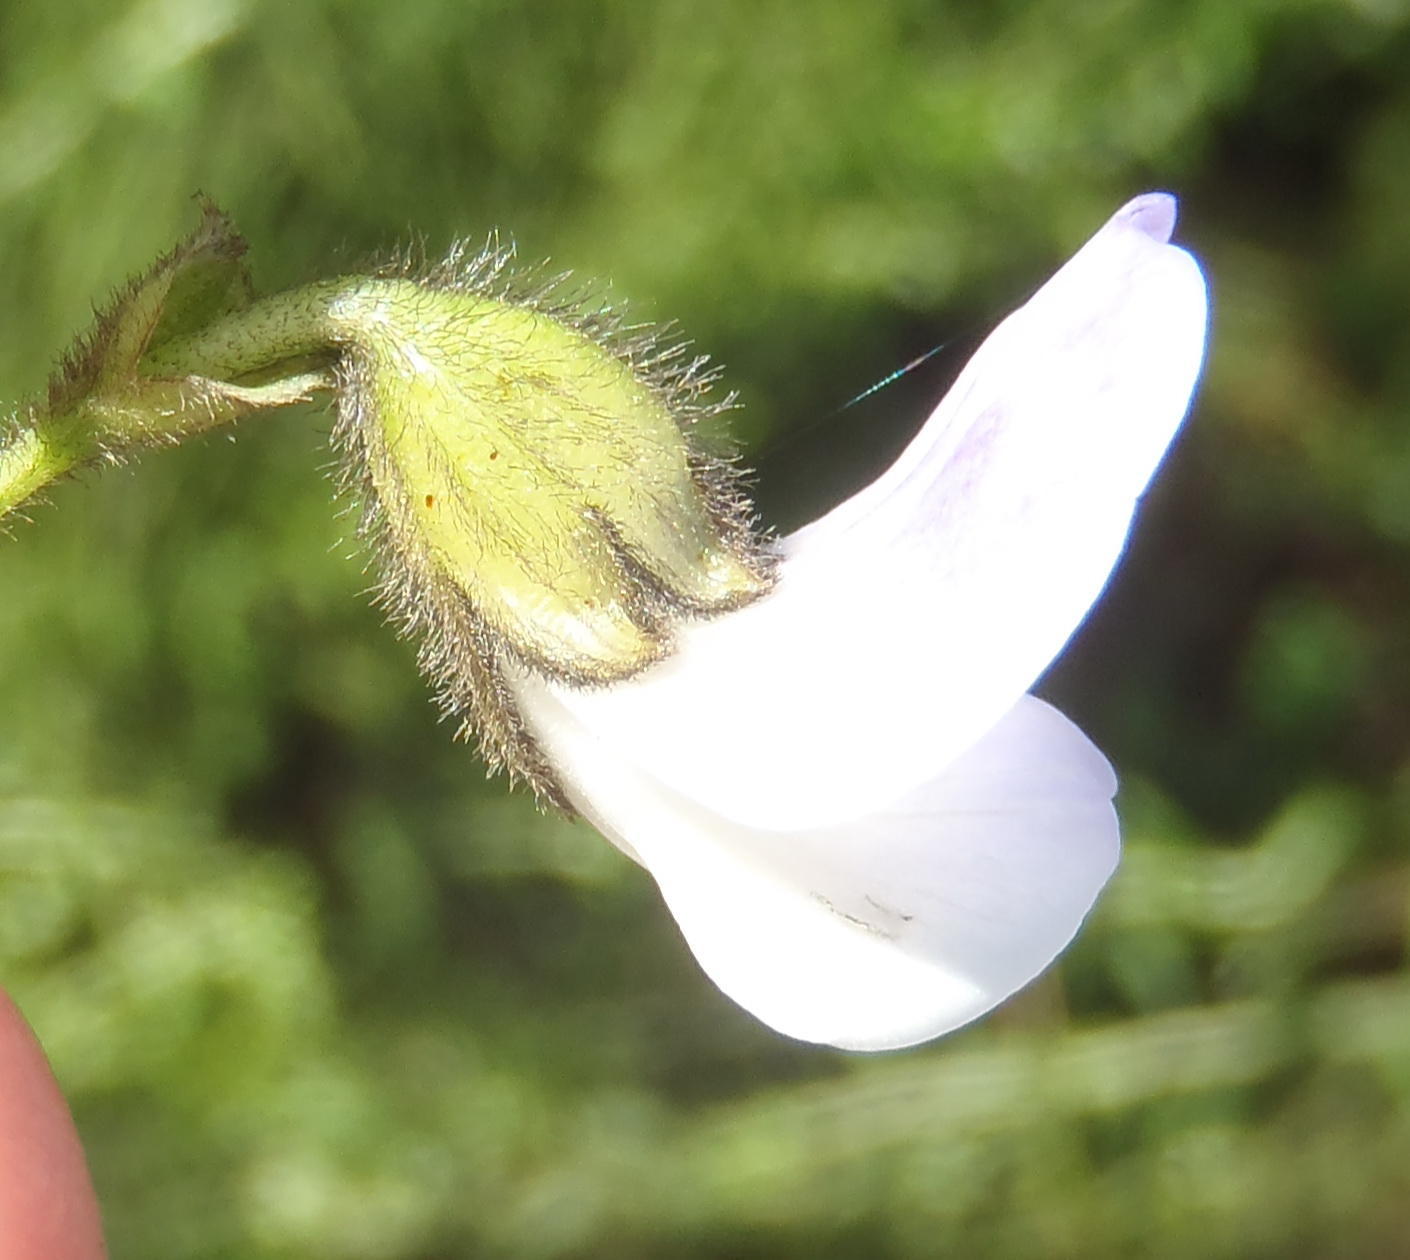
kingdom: Plantae
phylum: Tracheophyta
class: Magnoliopsida
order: Fabales
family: Fabaceae
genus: Psoralea
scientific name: Psoralea affinis
